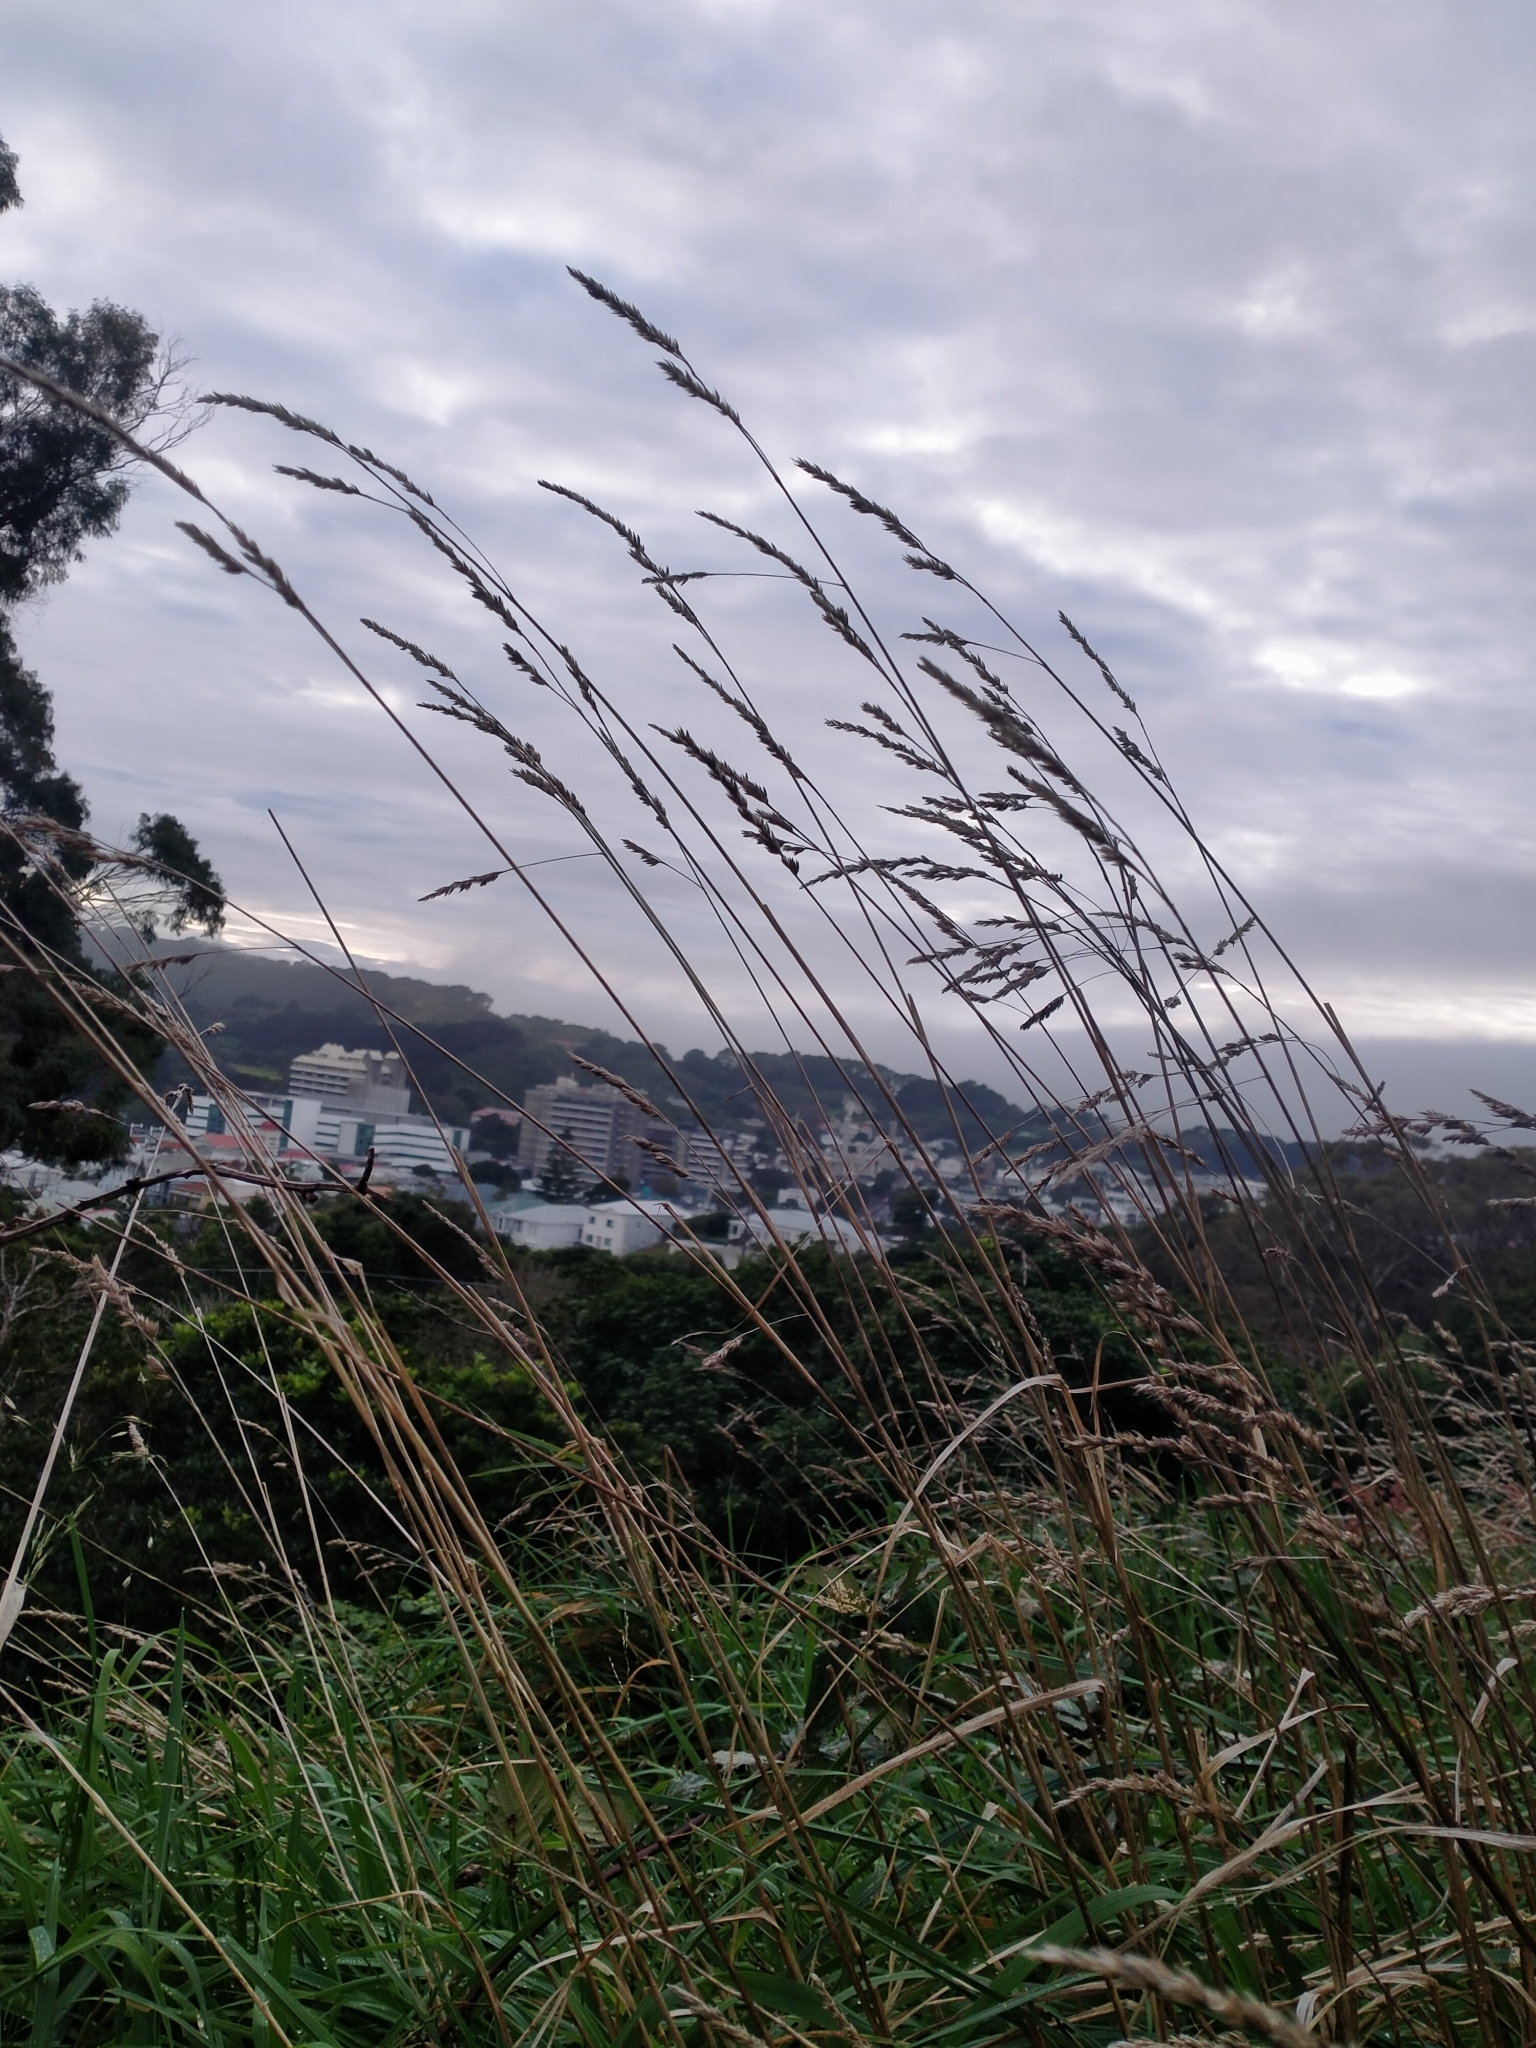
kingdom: Plantae
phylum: Tracheophyta
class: Liliopsida
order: Poales
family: Poaceae
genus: Lolium
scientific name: Lolium arundinaceum
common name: Reed fescue
